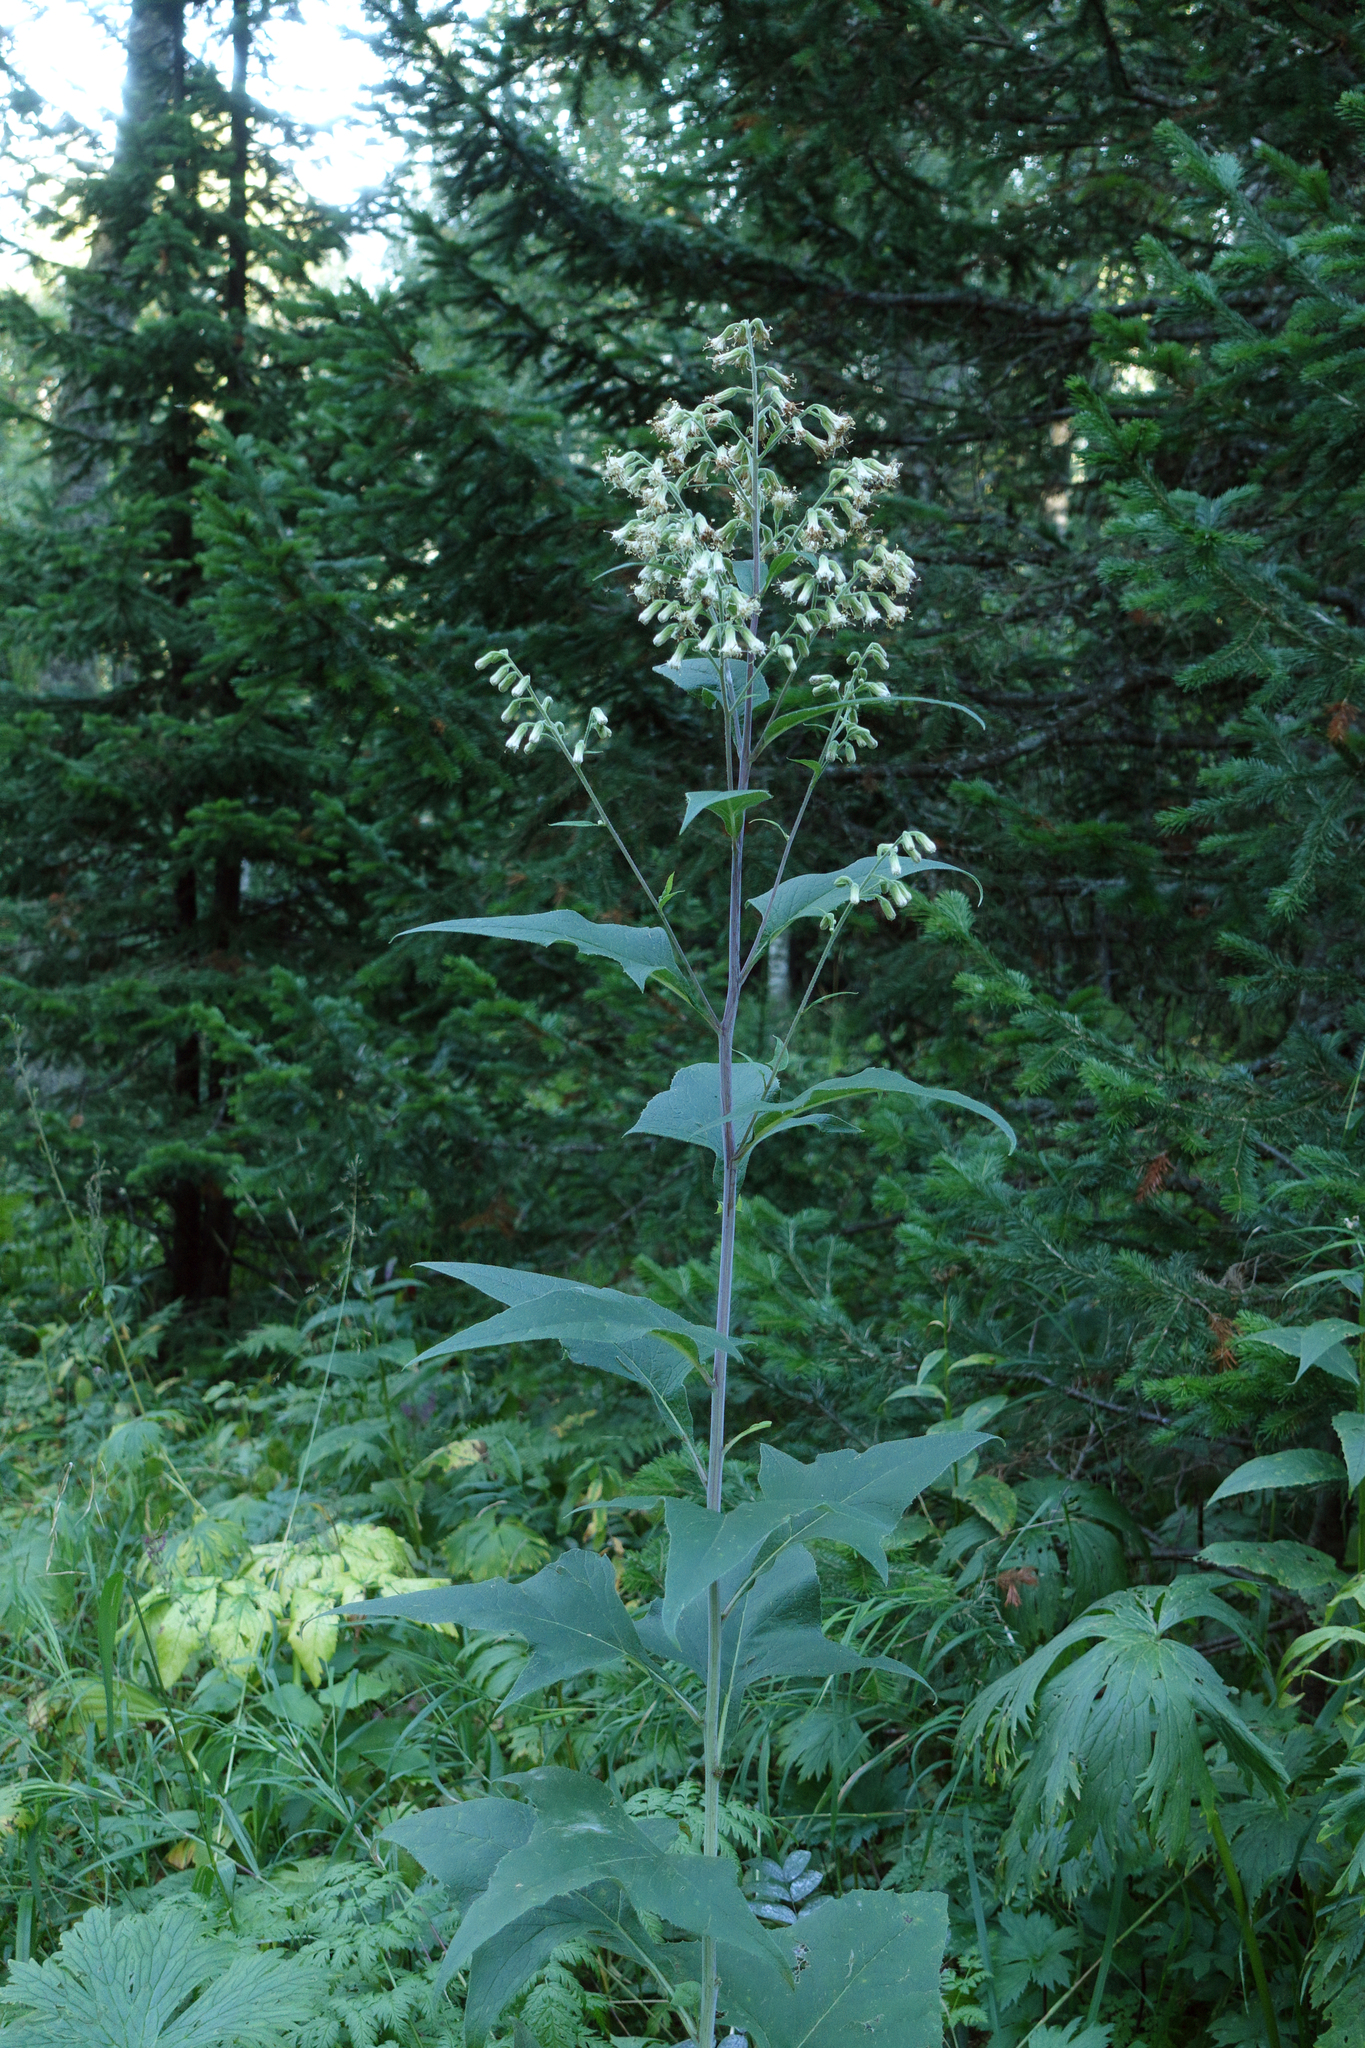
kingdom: Plantae
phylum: Tracheophyta
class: Magnoliopsida
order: Asterales
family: Asteraceae
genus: Parasenecio
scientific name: Parasenecio hastatus
